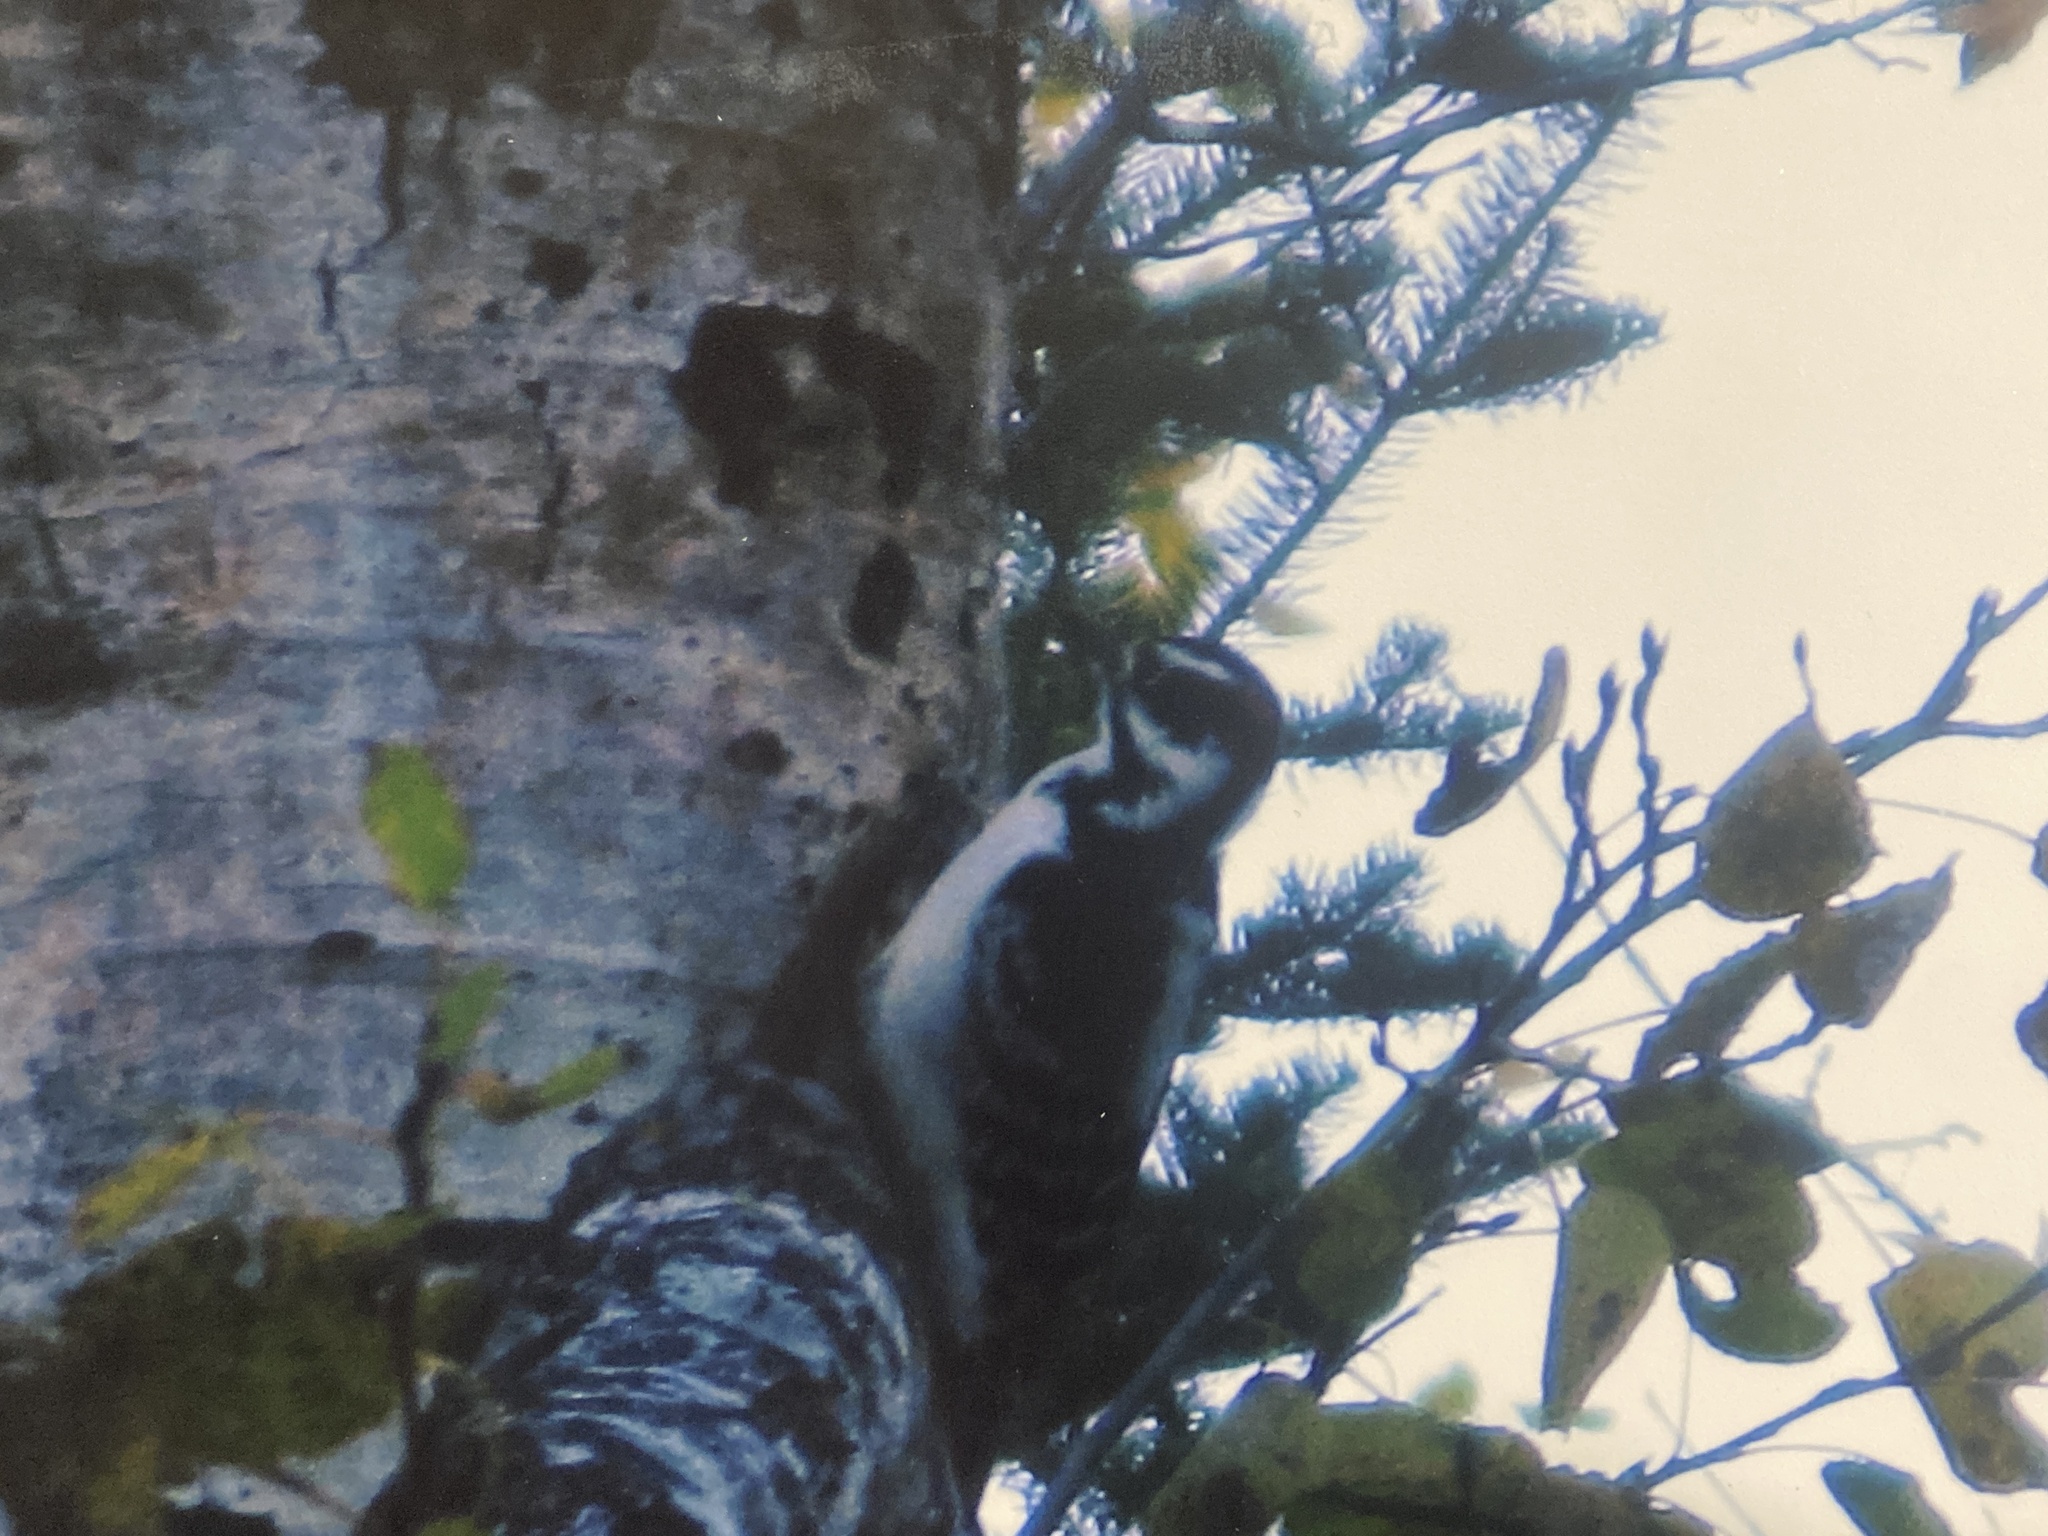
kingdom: Animalia
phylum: Chordata
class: Aves
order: Piciformes
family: Picidae
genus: Leuconotopicus
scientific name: Leuconotopicus villosus
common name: Hairy woodpecker
